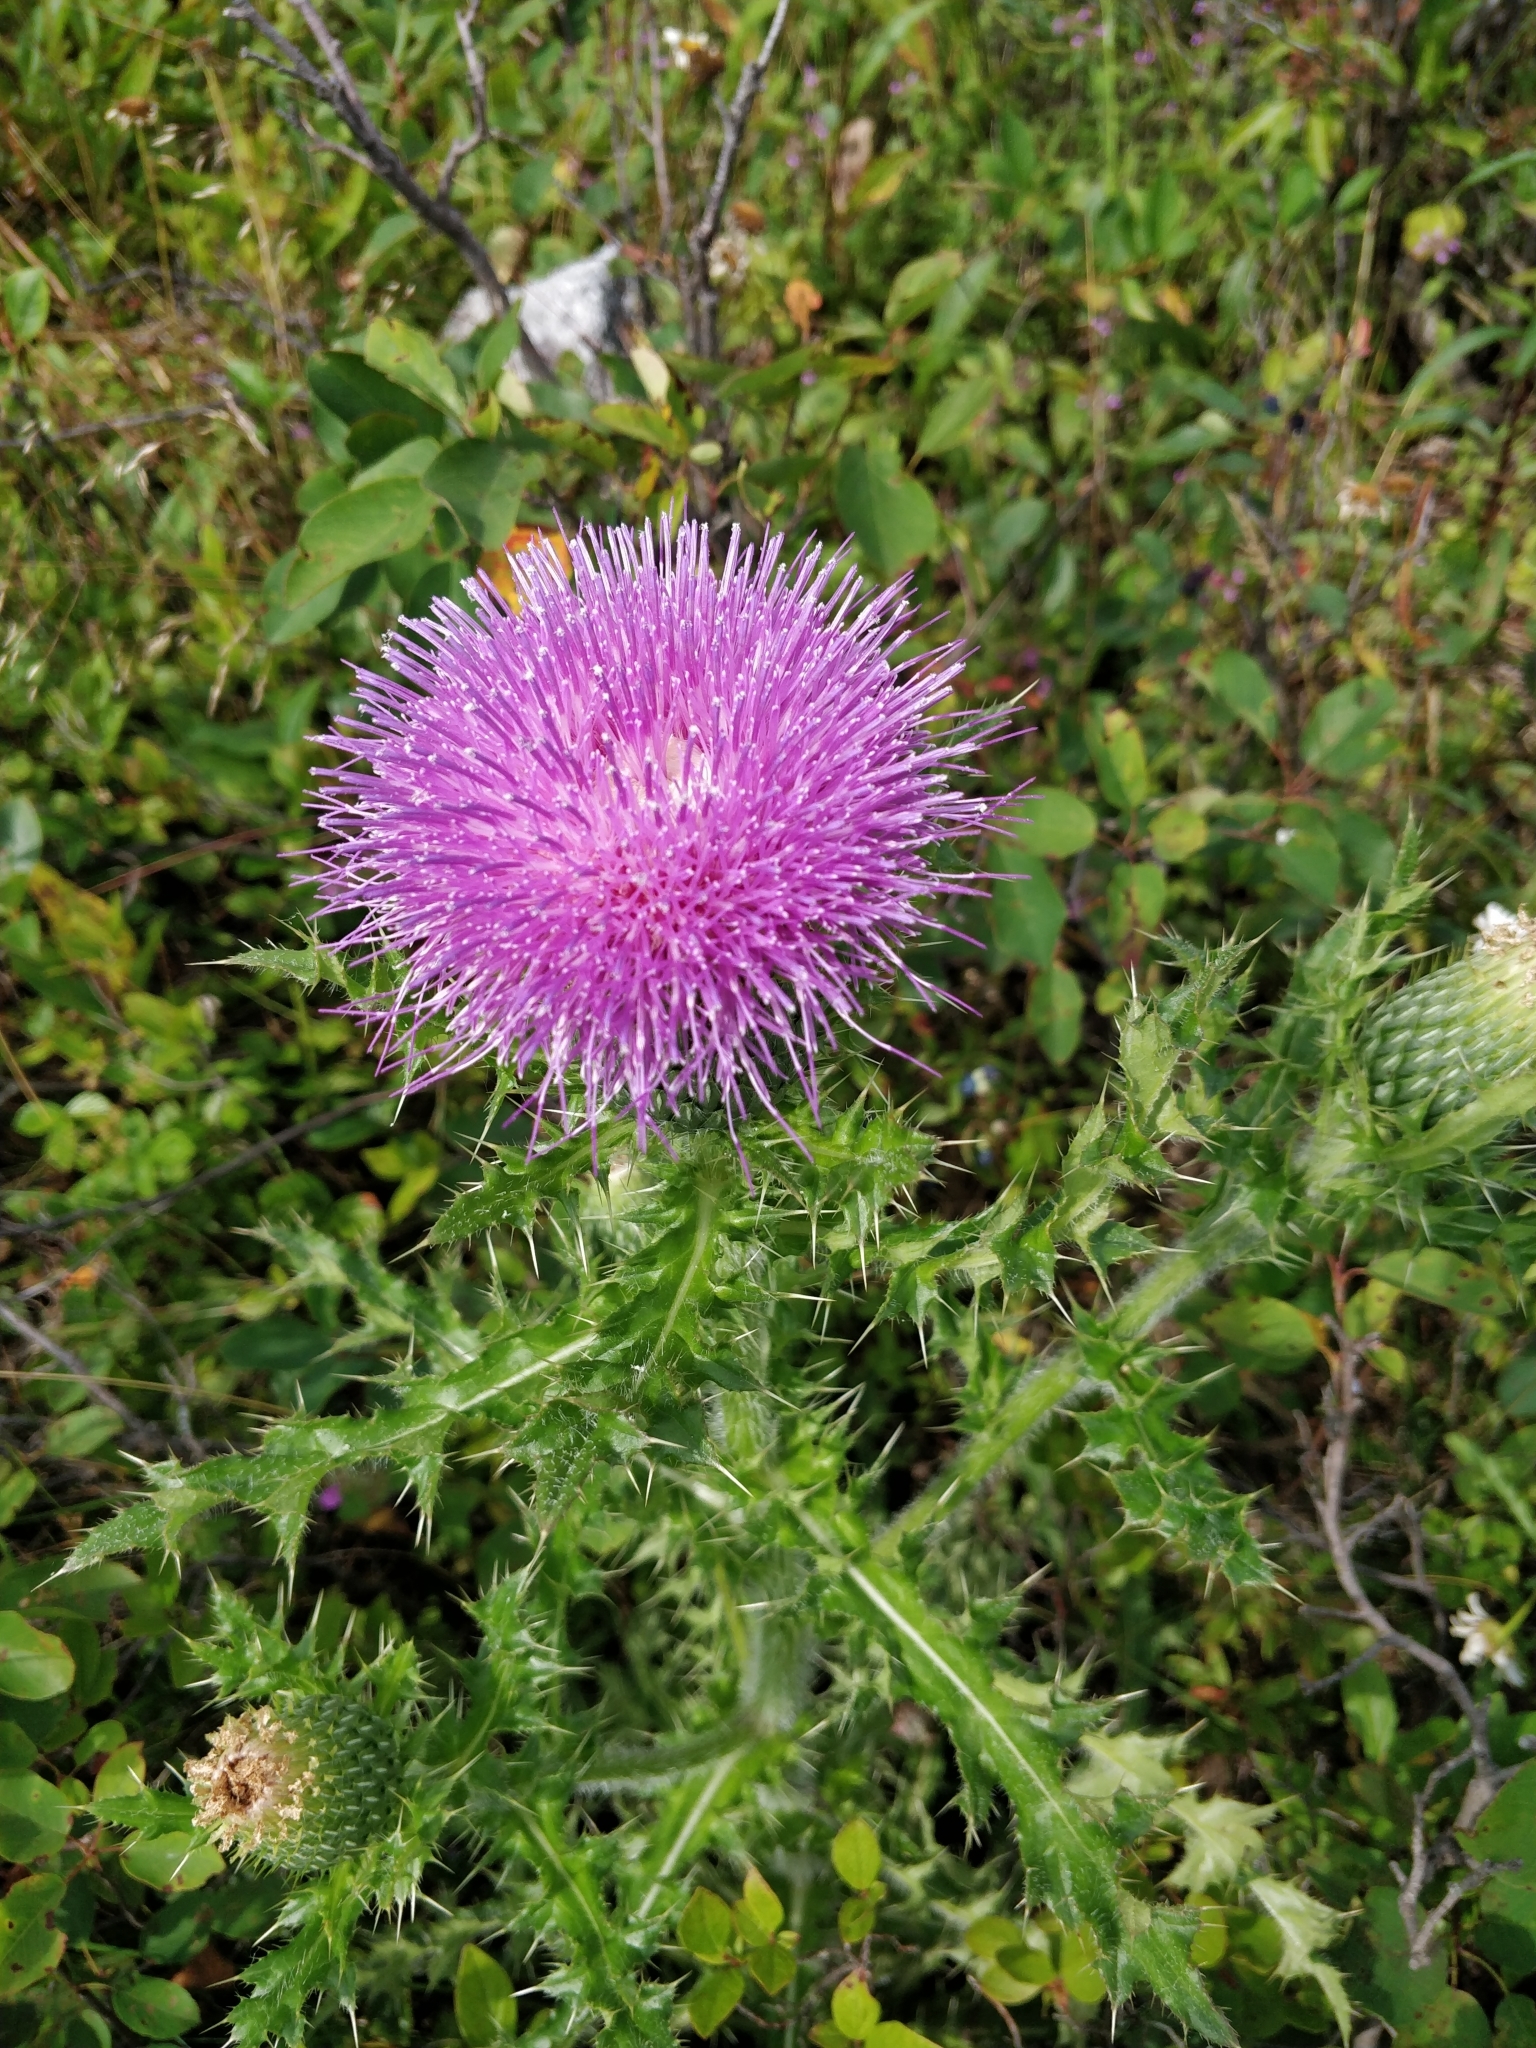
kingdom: Plantae
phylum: Tracheophyta
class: Magnoliopsida
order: Asterales
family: Asteraceae
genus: Cirsium
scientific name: Cirsium pumilum
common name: Pasture thistle
